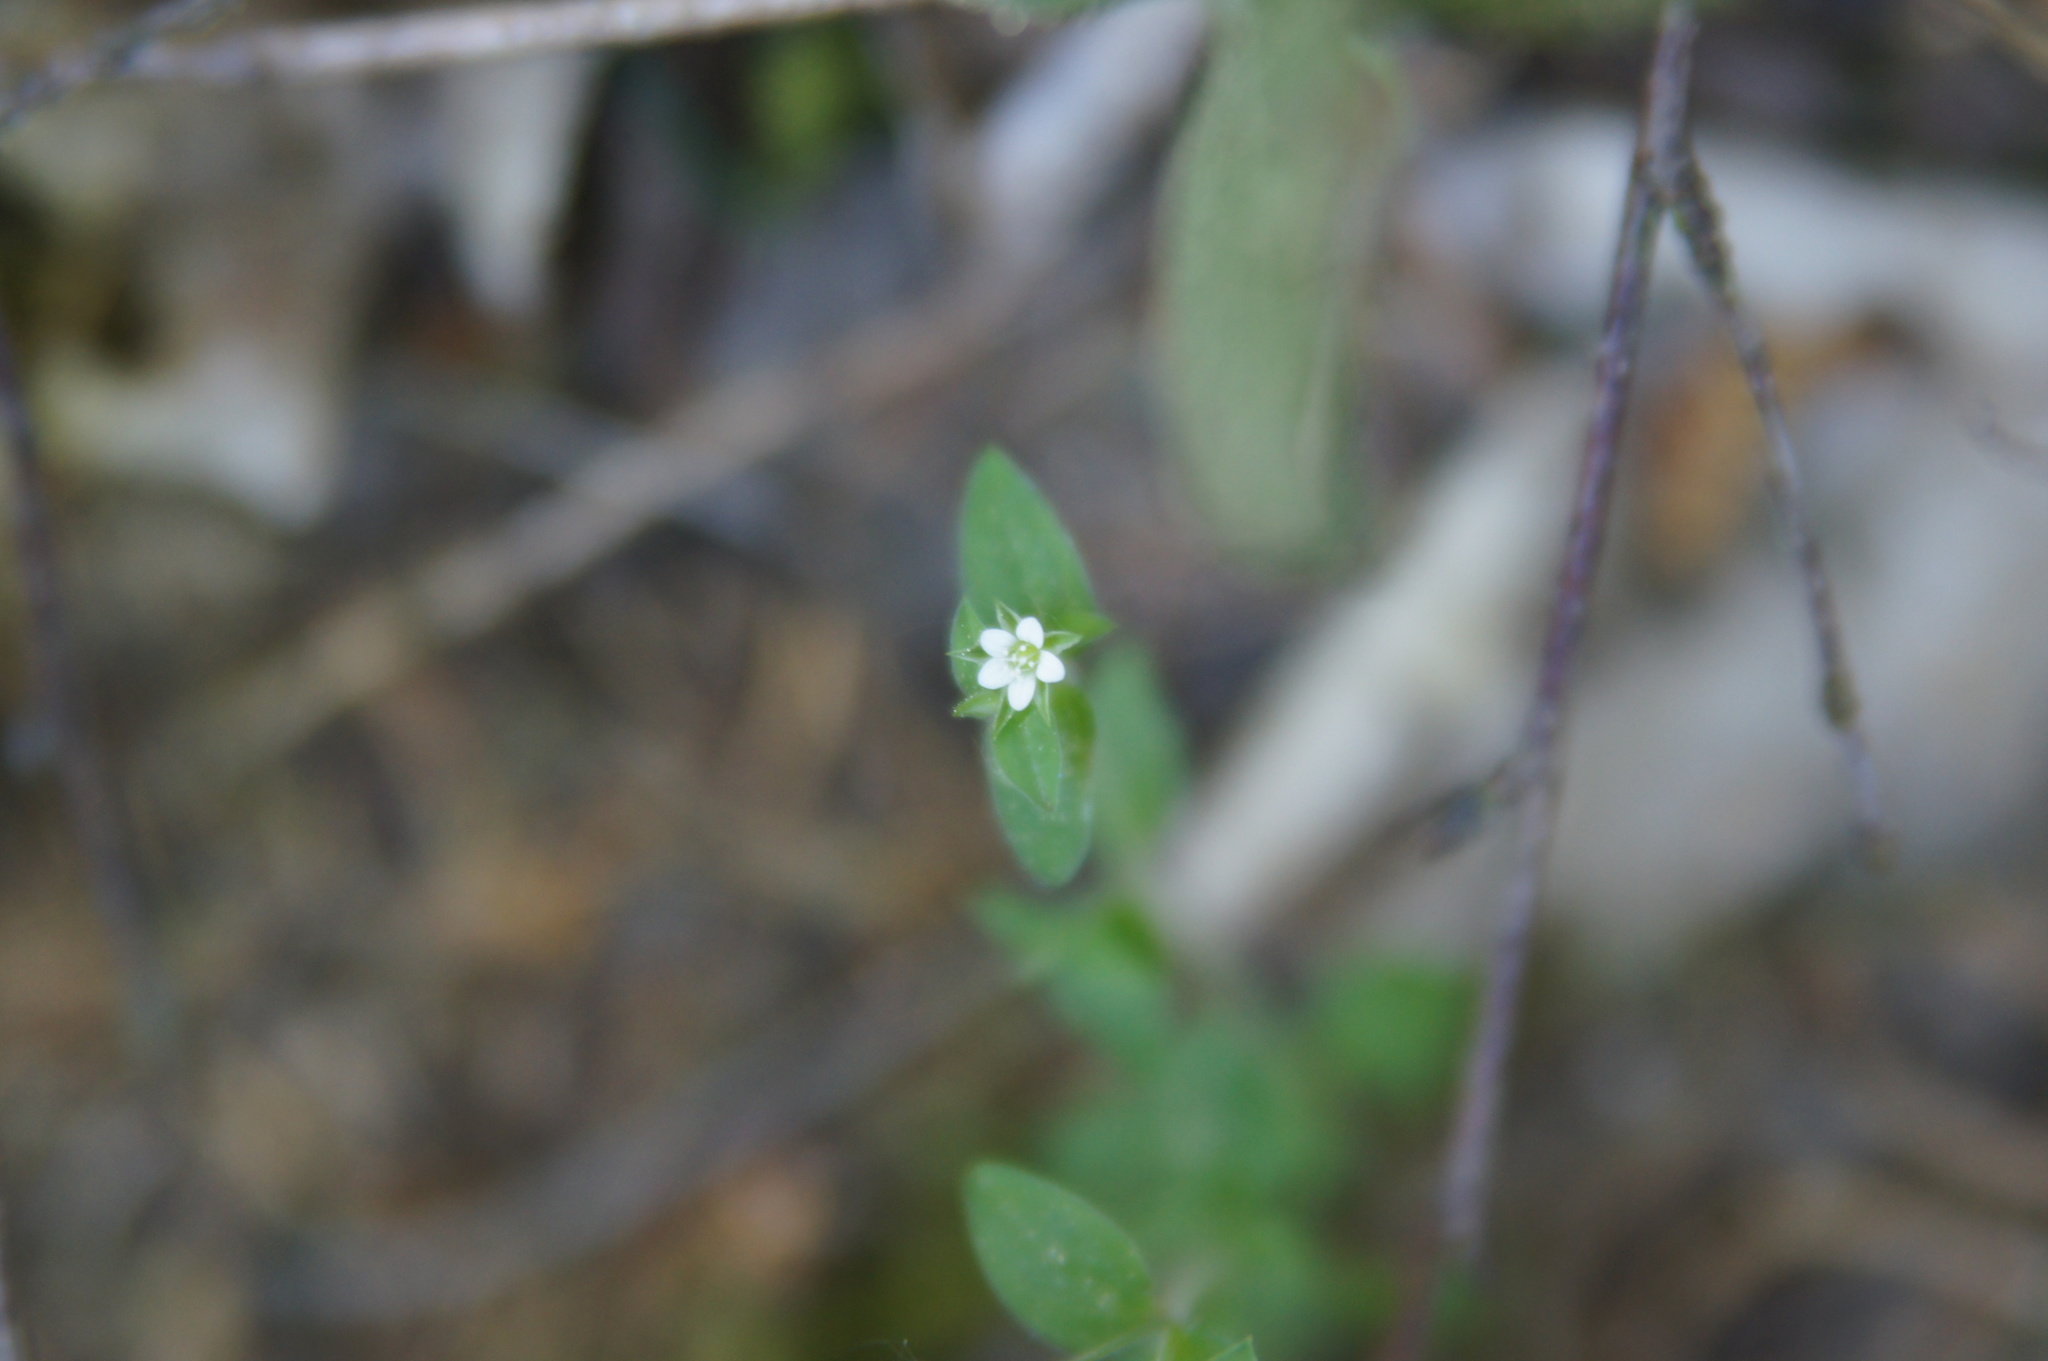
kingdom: Plantae
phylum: Tracheophyta
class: Magnoliopsida
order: Caryophyllales
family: Caryophyllaceae
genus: Moehringia
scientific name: Moehringia trinervia
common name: Three-nerved sandwort
